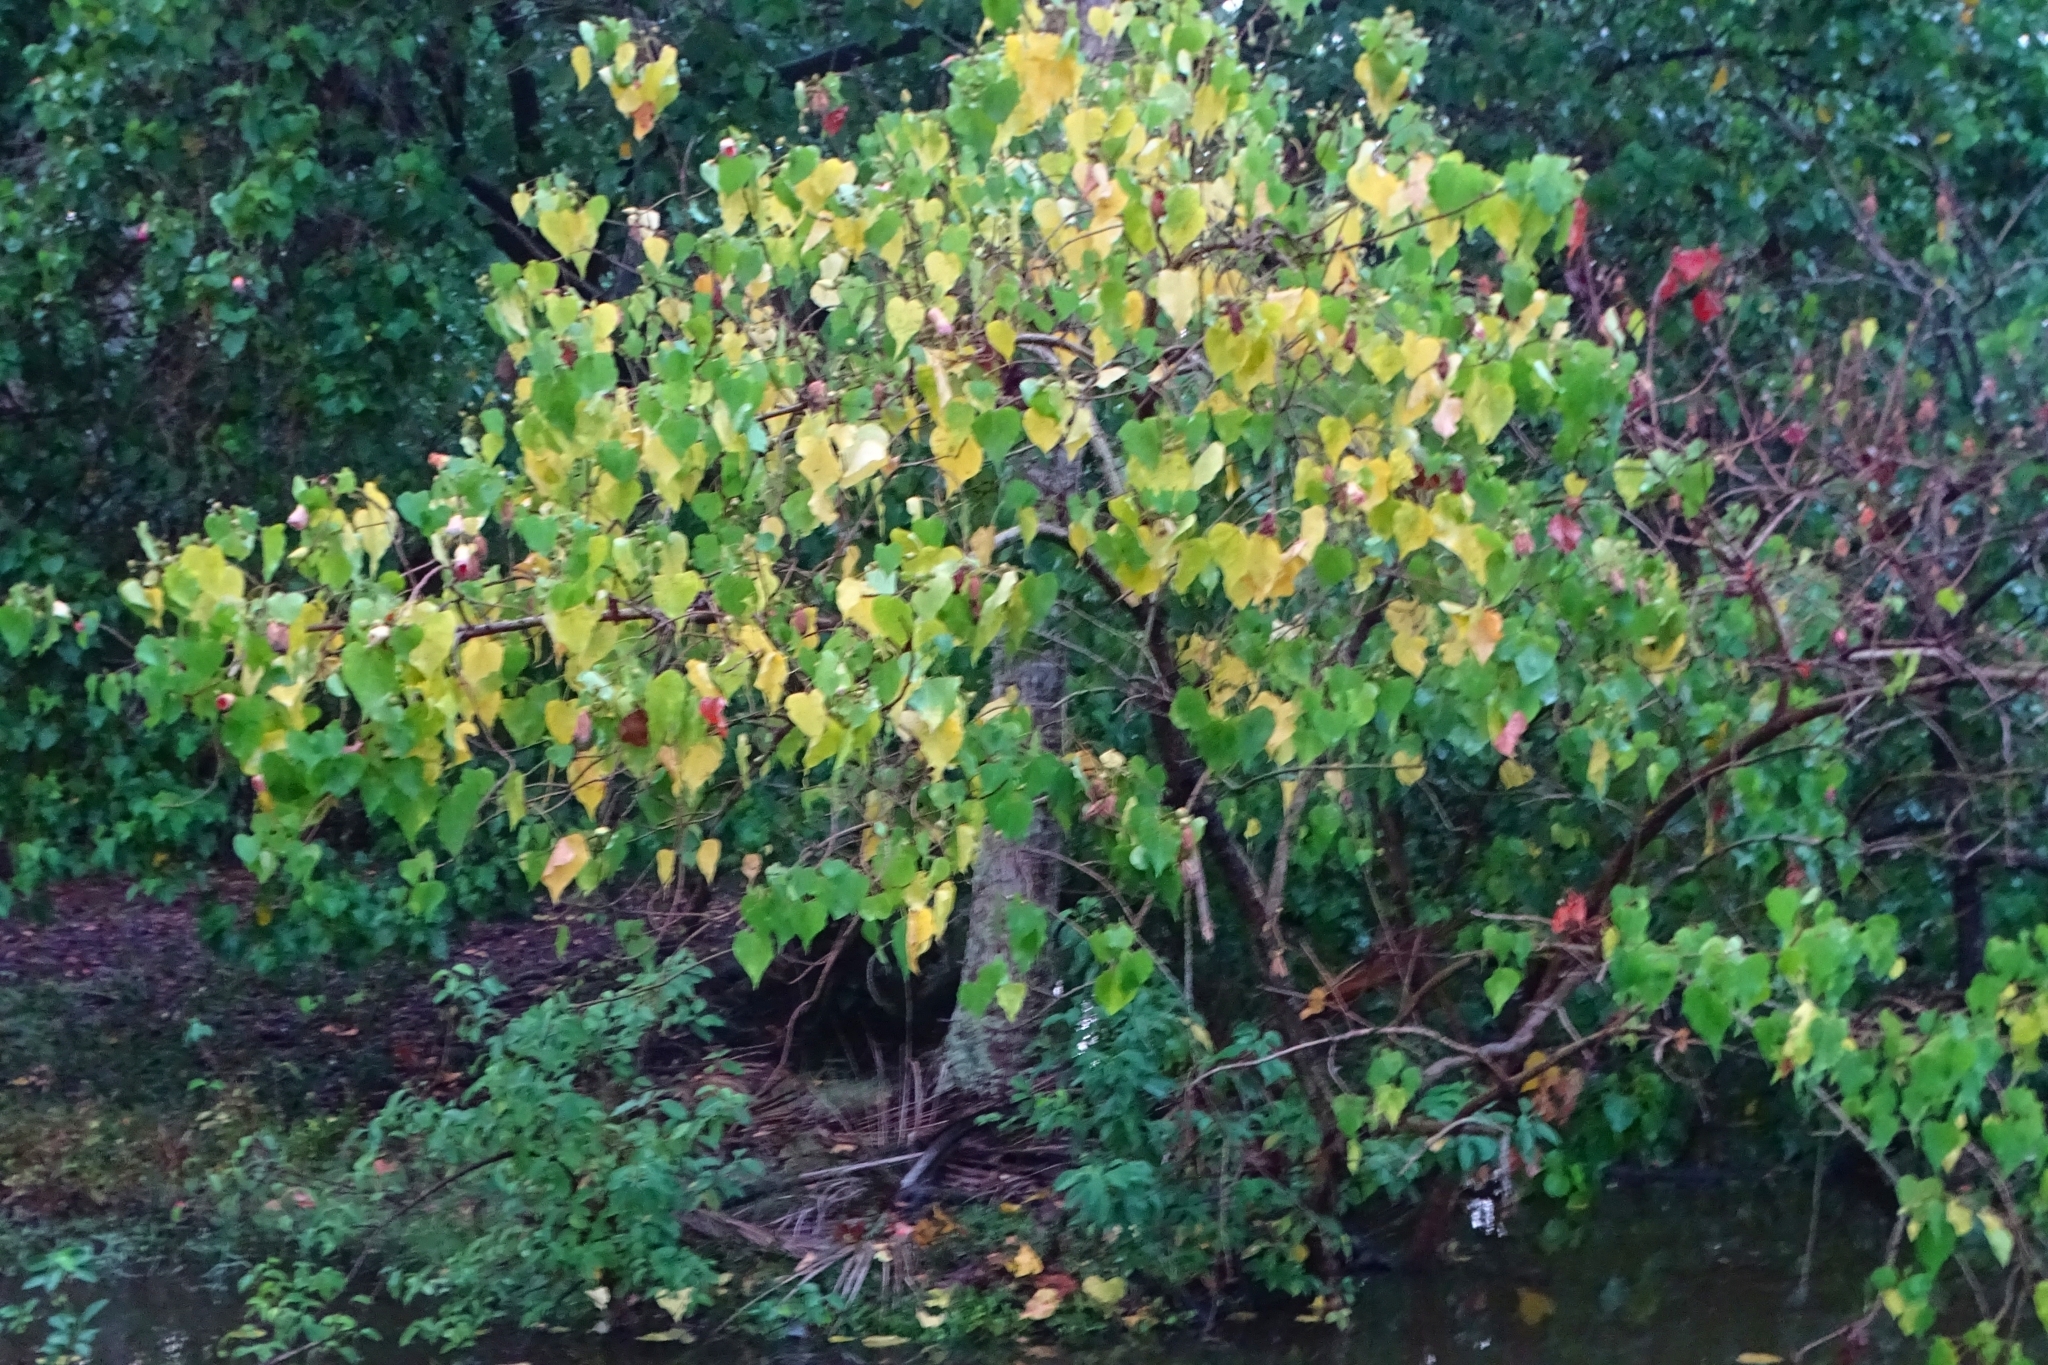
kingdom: Plantae
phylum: Tracheophyta
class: Magnoliopsida
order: Malvales
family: Malvaceae
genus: Thespesia
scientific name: Thespesia populnea
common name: Seaside mahoe
